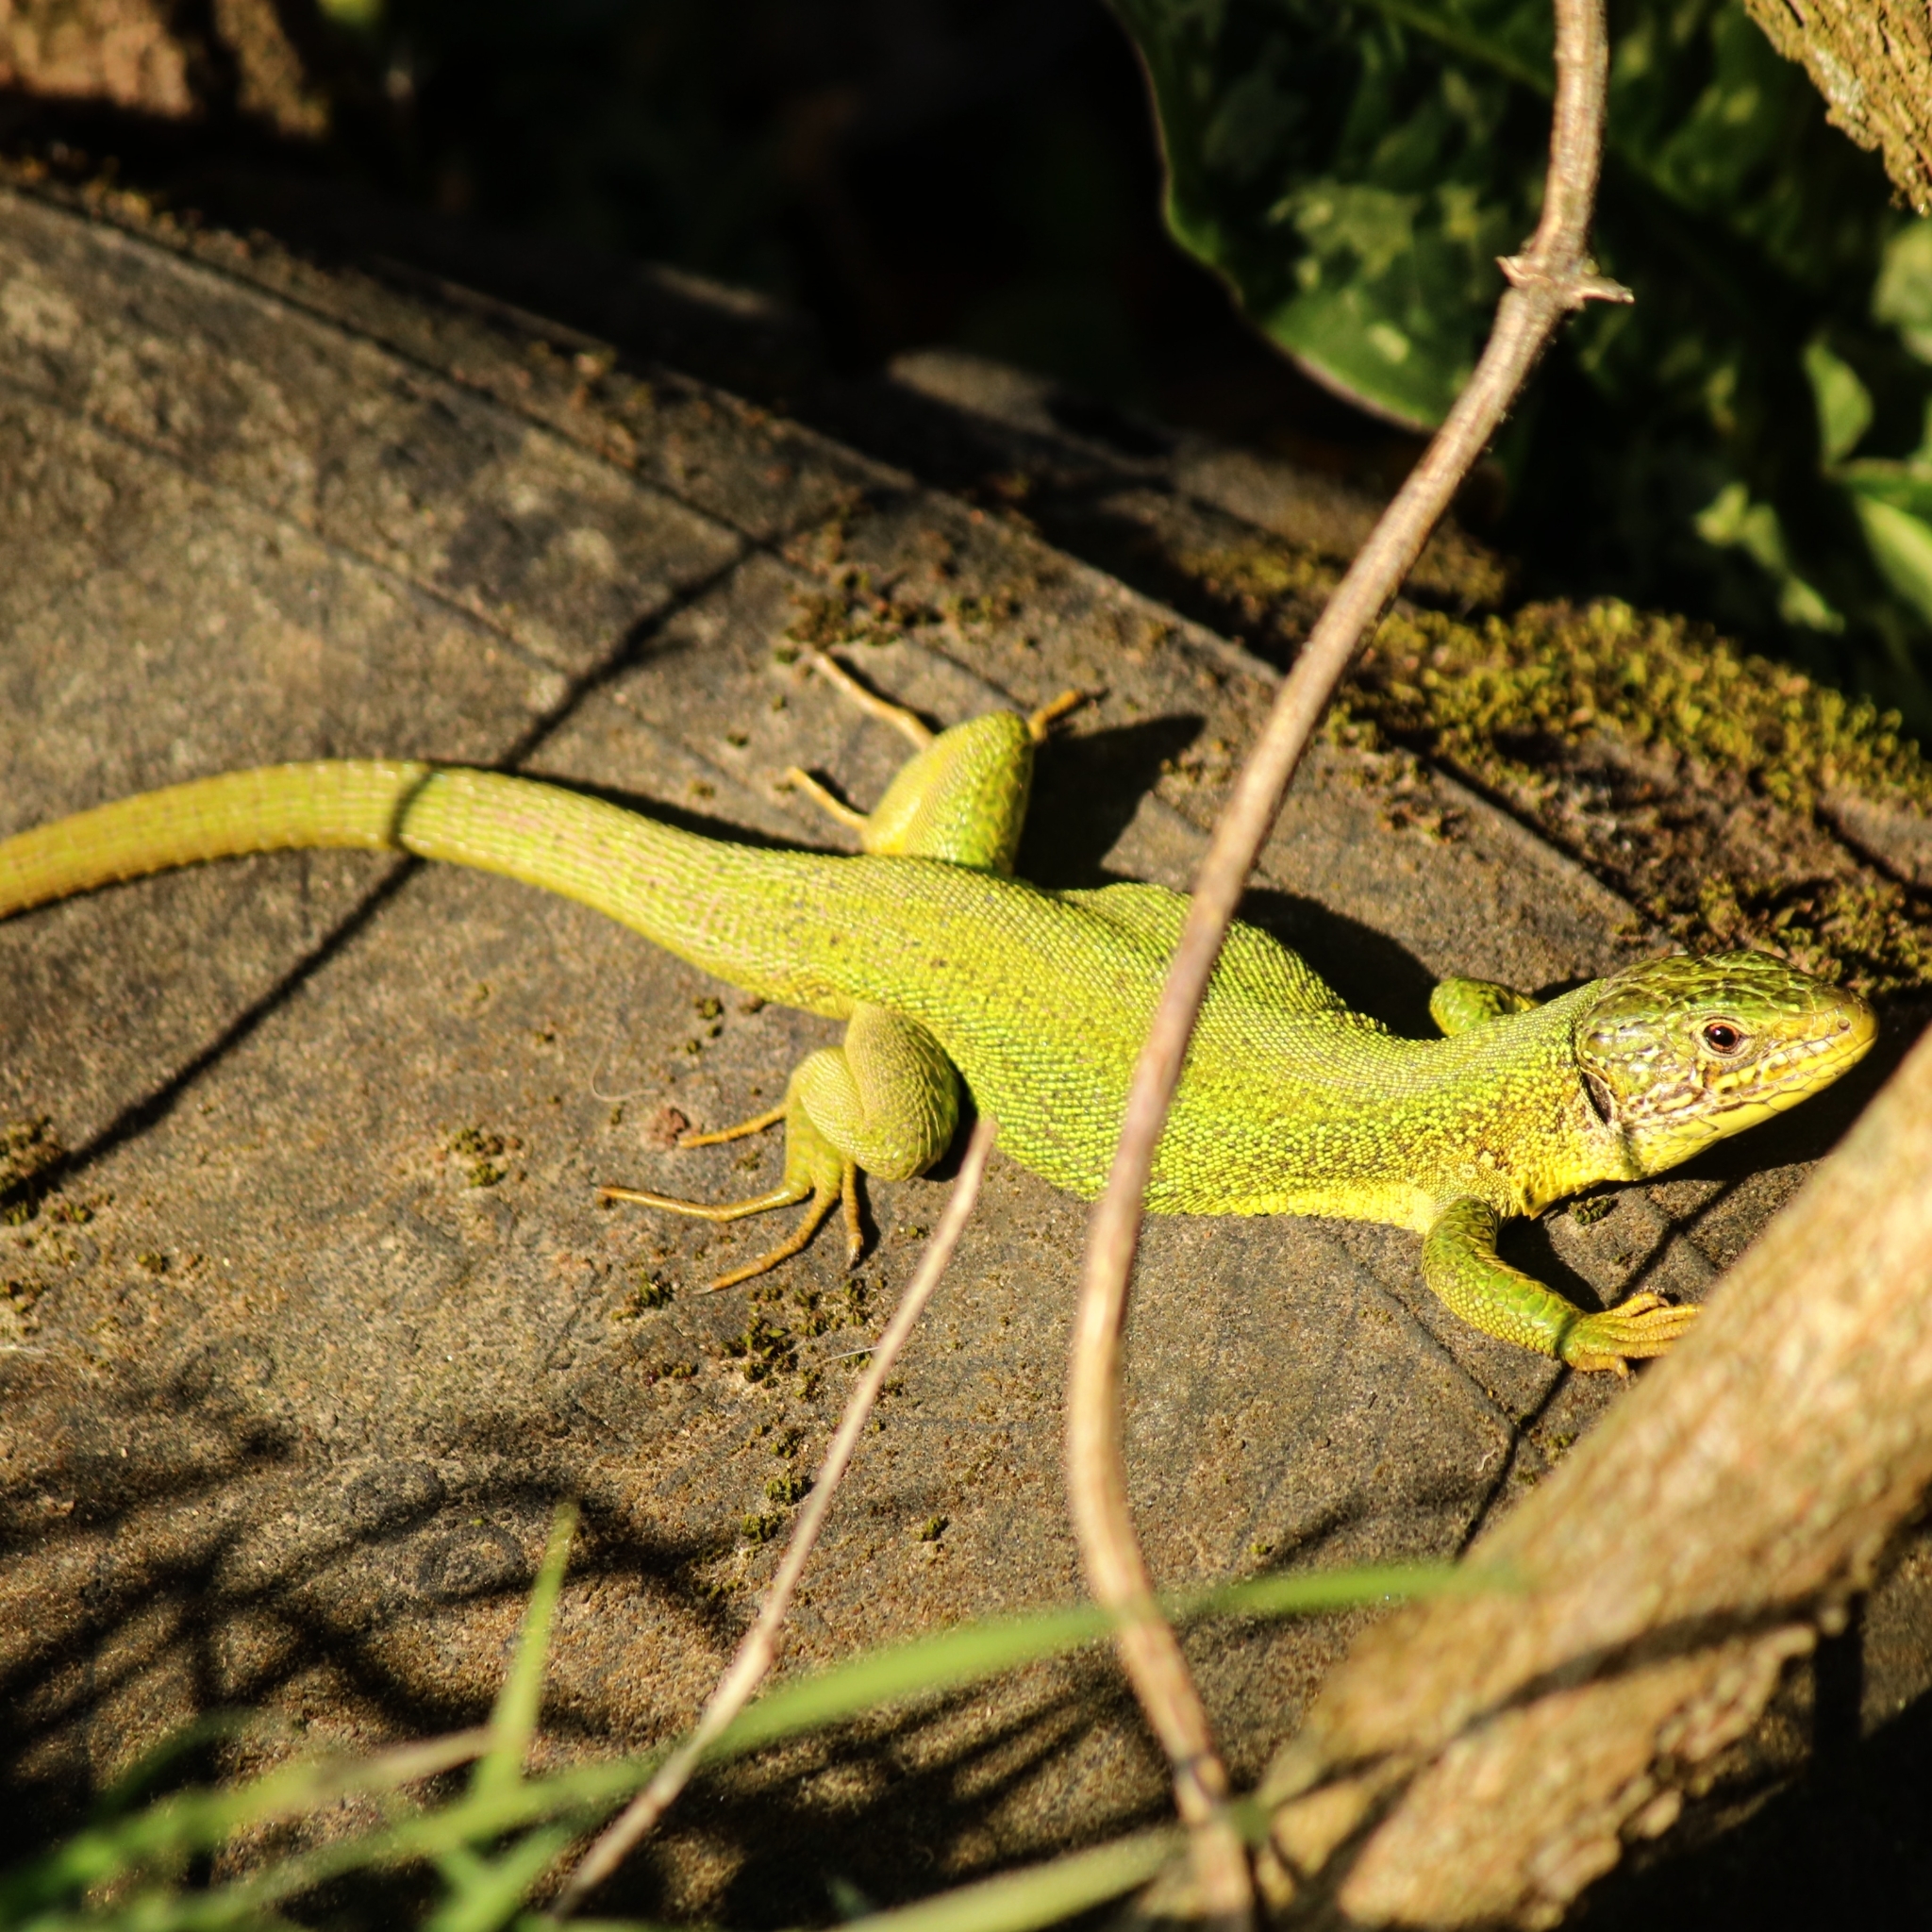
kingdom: Animalia
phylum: Chordata
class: Squamata
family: Lacertidae
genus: Lacerta
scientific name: Lacerta bilineata
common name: Western green lizard
